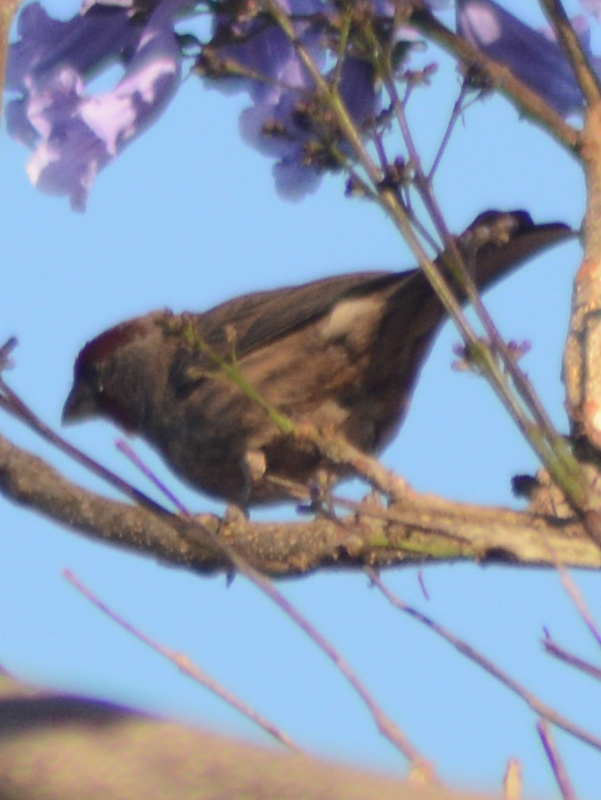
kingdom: Animalia
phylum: Chordata
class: Aves
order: Passeriformes
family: Fringillidae
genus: Haemorhous
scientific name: Haemorhous mexicanus
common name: House finch
